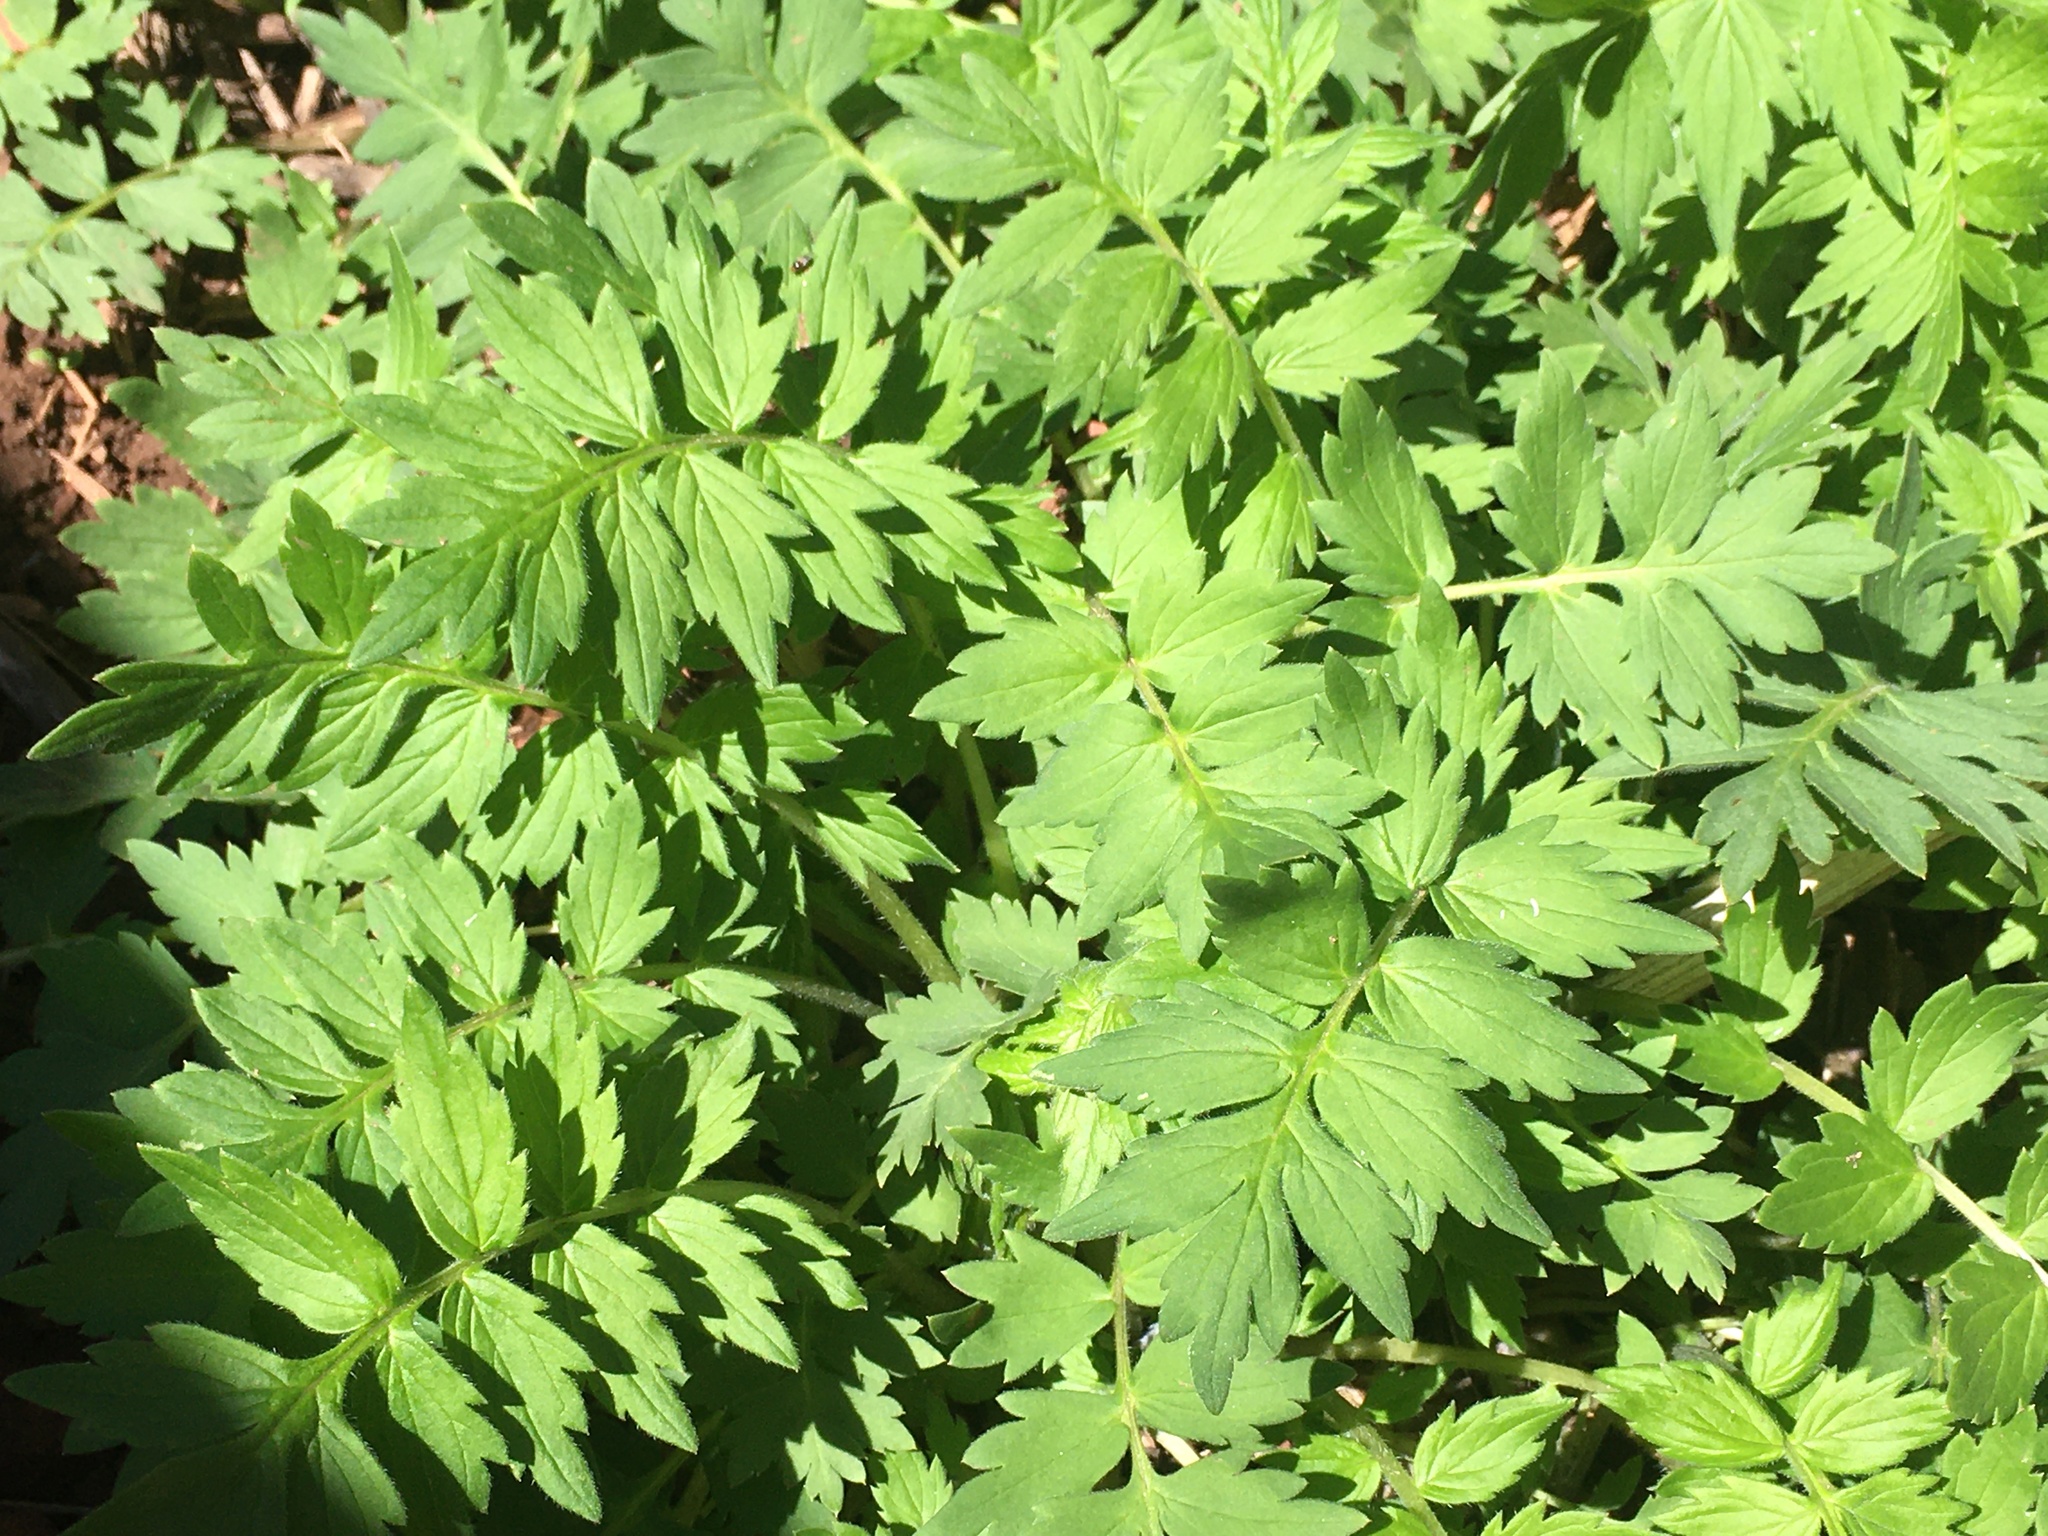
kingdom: Plantae
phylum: Tracheophyta
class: Magnoliopsida
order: Boraginales
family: Hydrophyllaceae
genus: Hydrophyllum
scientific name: Hydrophyllum fendleri
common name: Fendler's waterleaf
